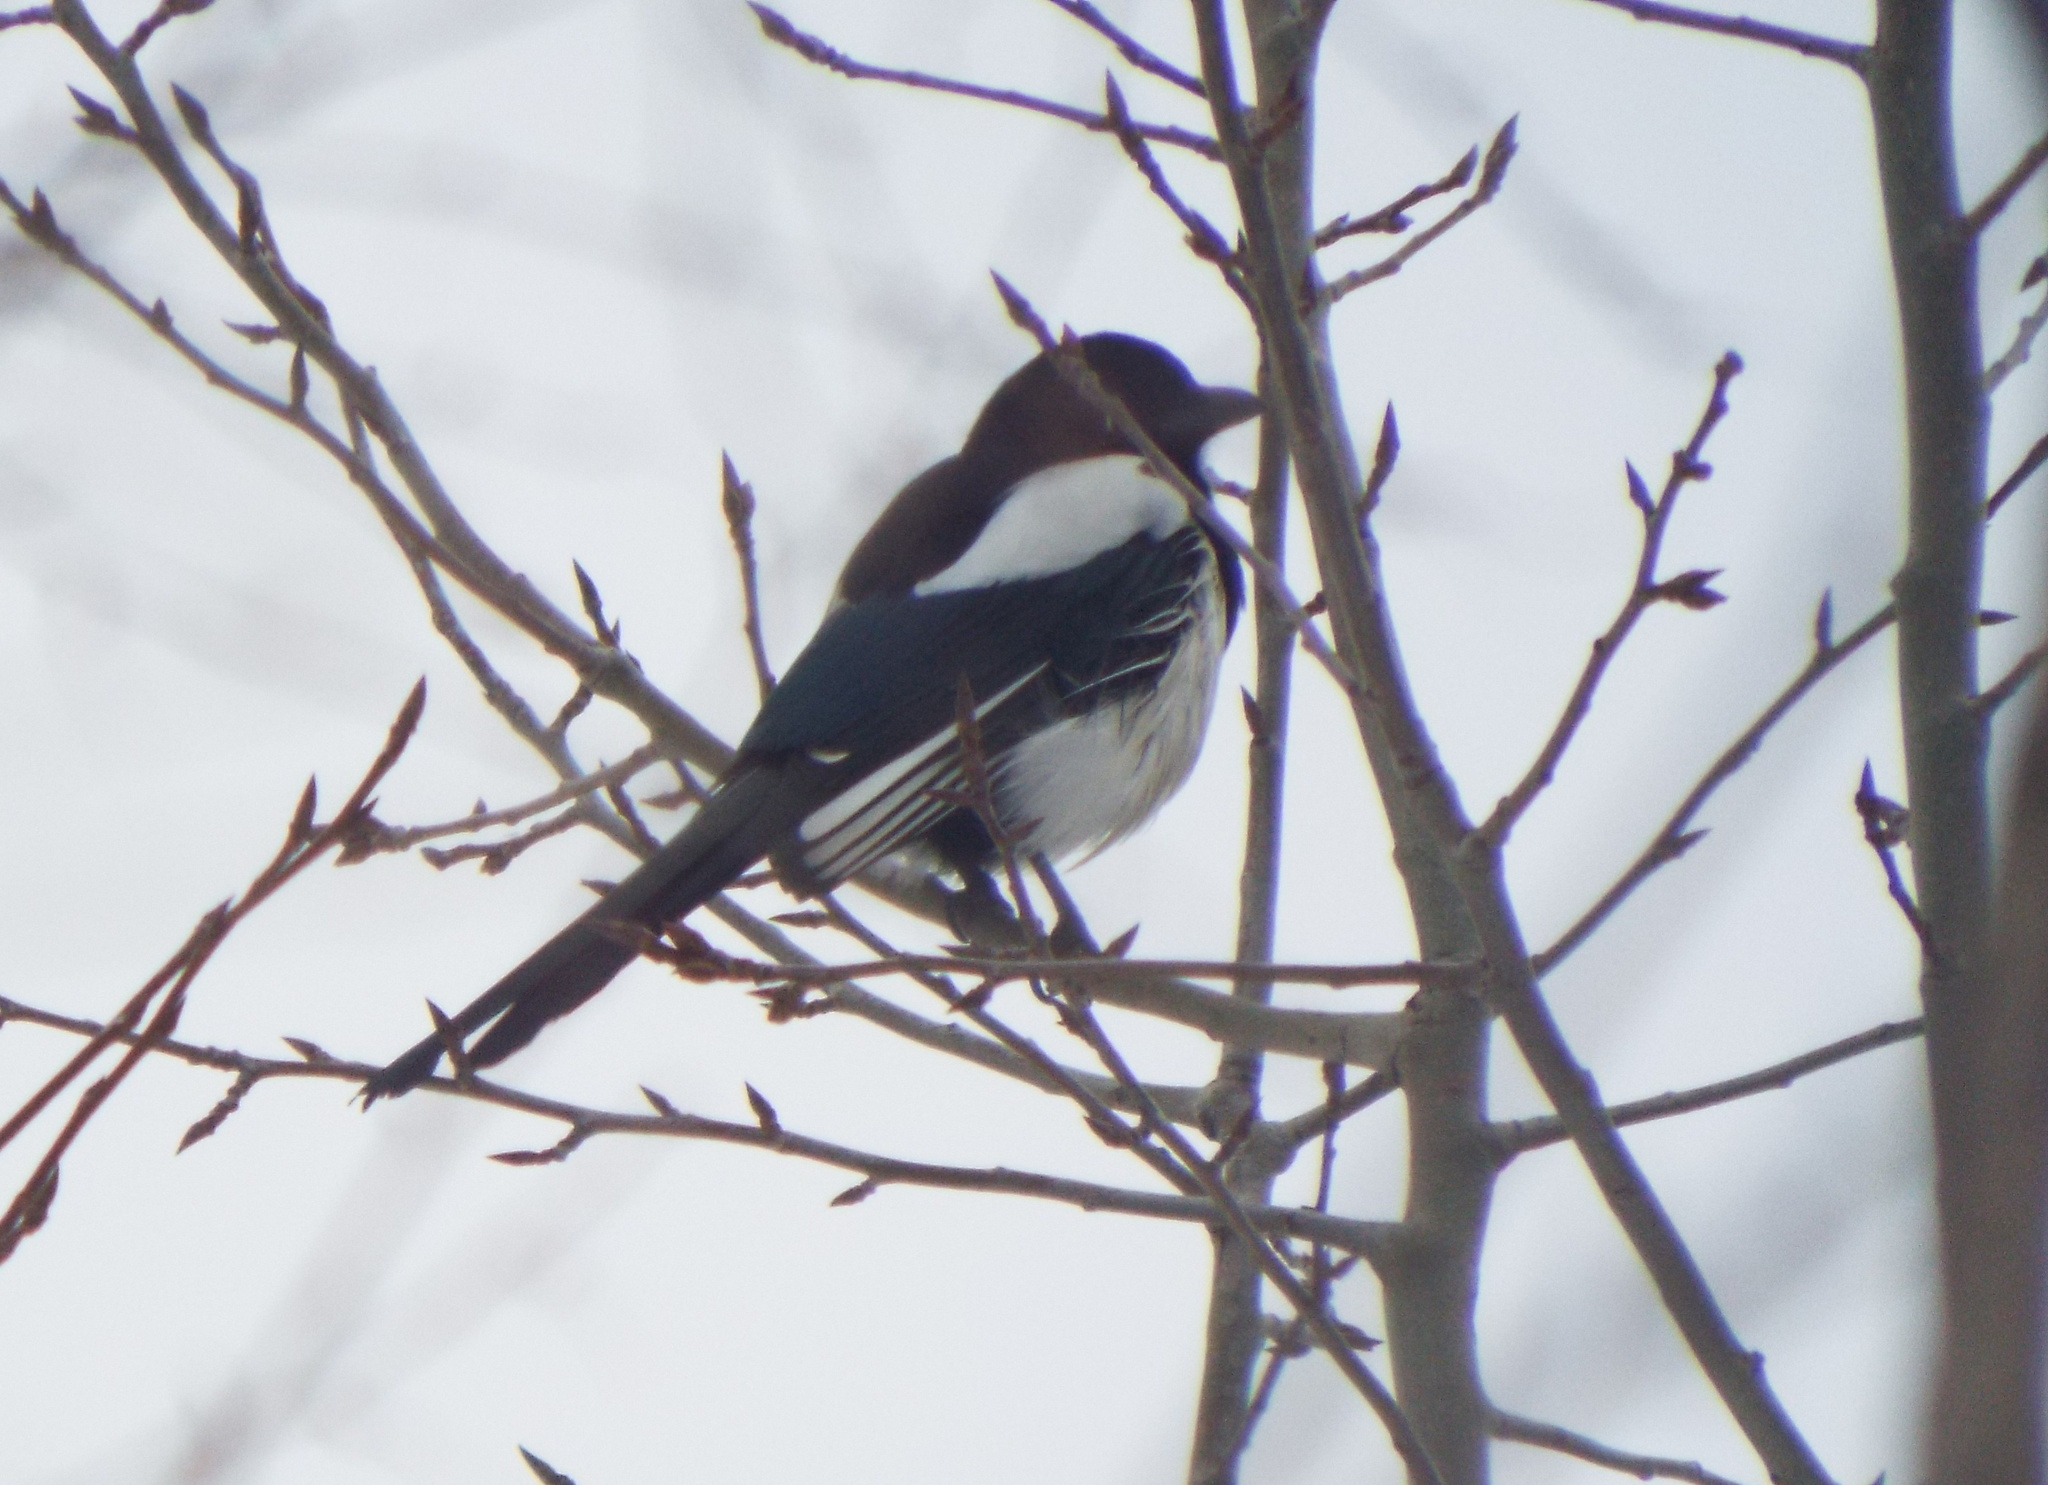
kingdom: Animalia
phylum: Chordata
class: Aves
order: Passeriformes
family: Corvidae
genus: Pica
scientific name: Pica pica
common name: Eurasian magpie
